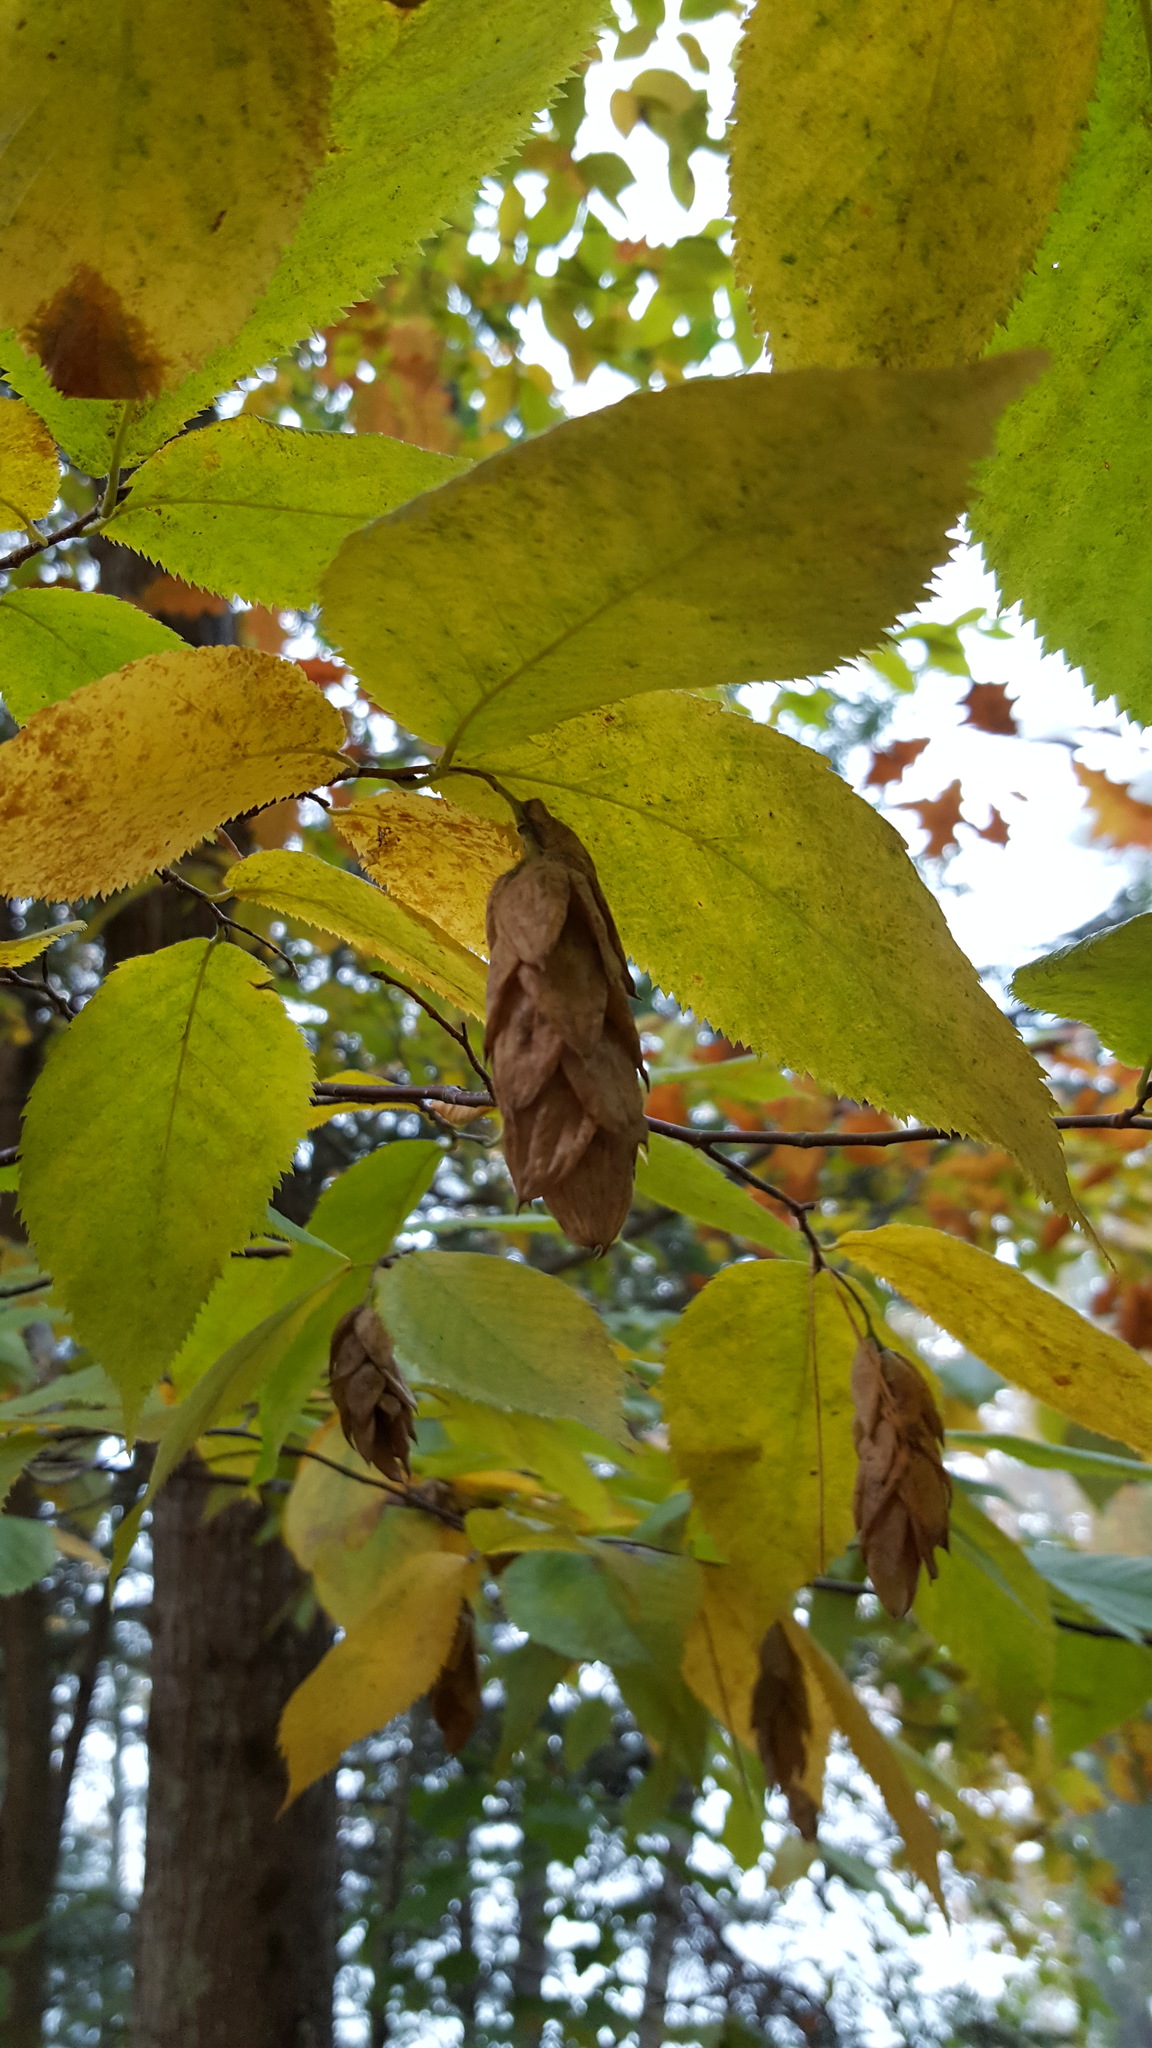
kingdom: Plantae
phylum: Tracheophyta
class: Magnoliopsida
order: Fagales
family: Betulaceae
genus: Ostrya
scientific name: Ostrya virginiana
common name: Ironwood
